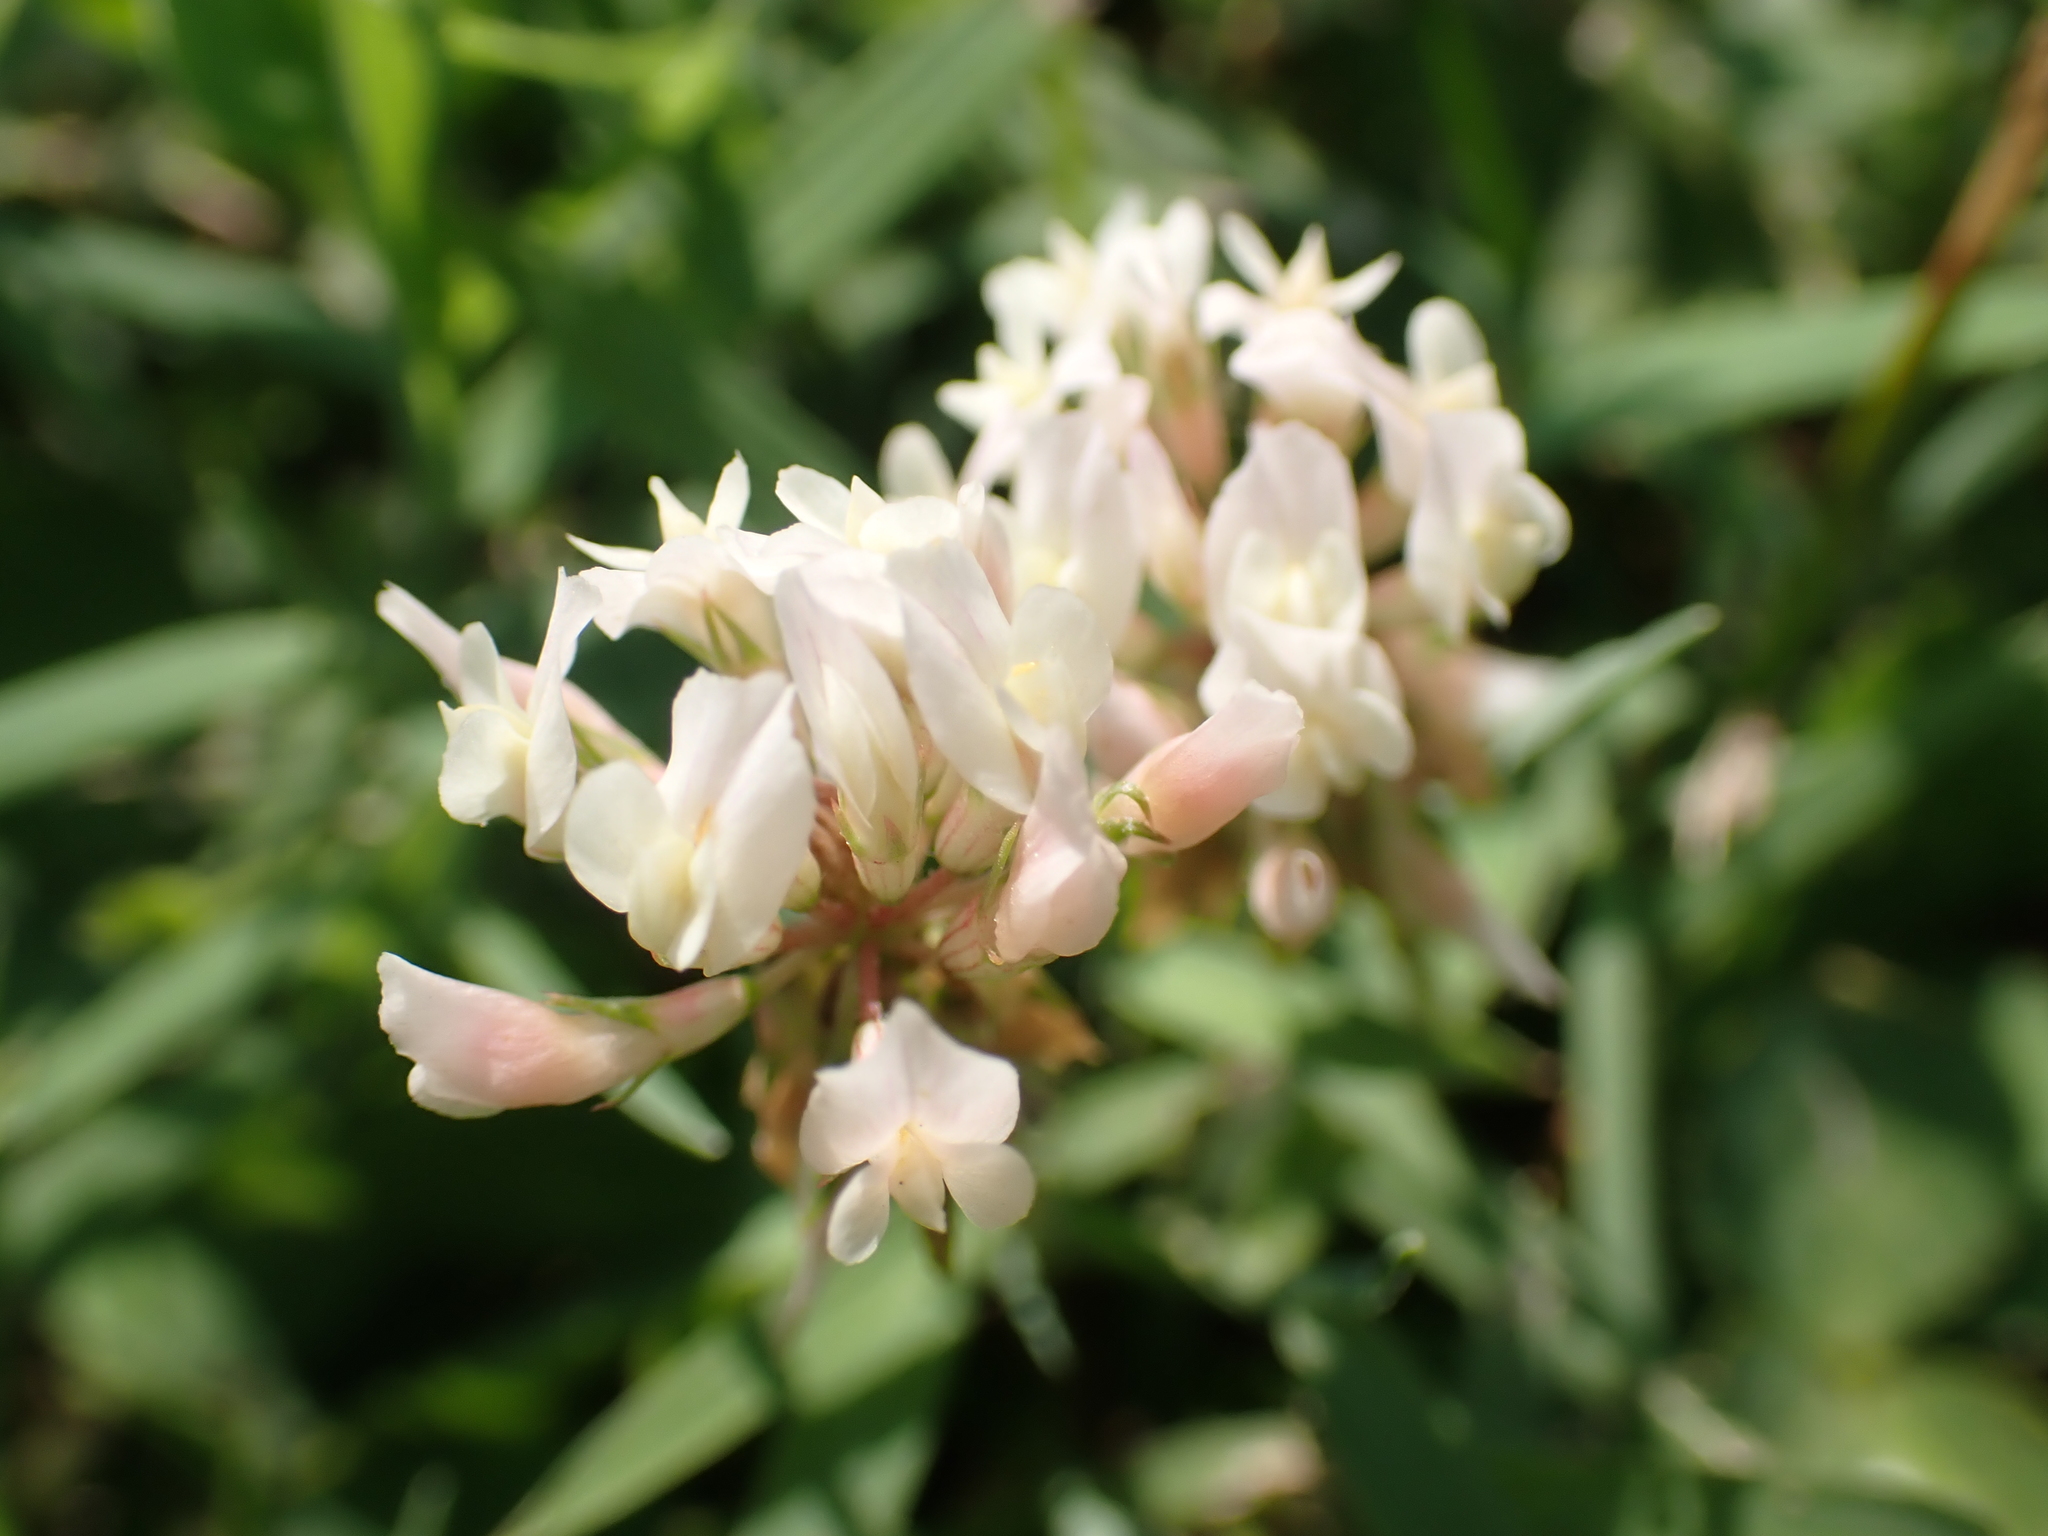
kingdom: Plantae
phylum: Tracheophyta
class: Magnoliopsida
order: Fabales
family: Fabaceae
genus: Trifolium
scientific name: Trifolium repens
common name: White clover
